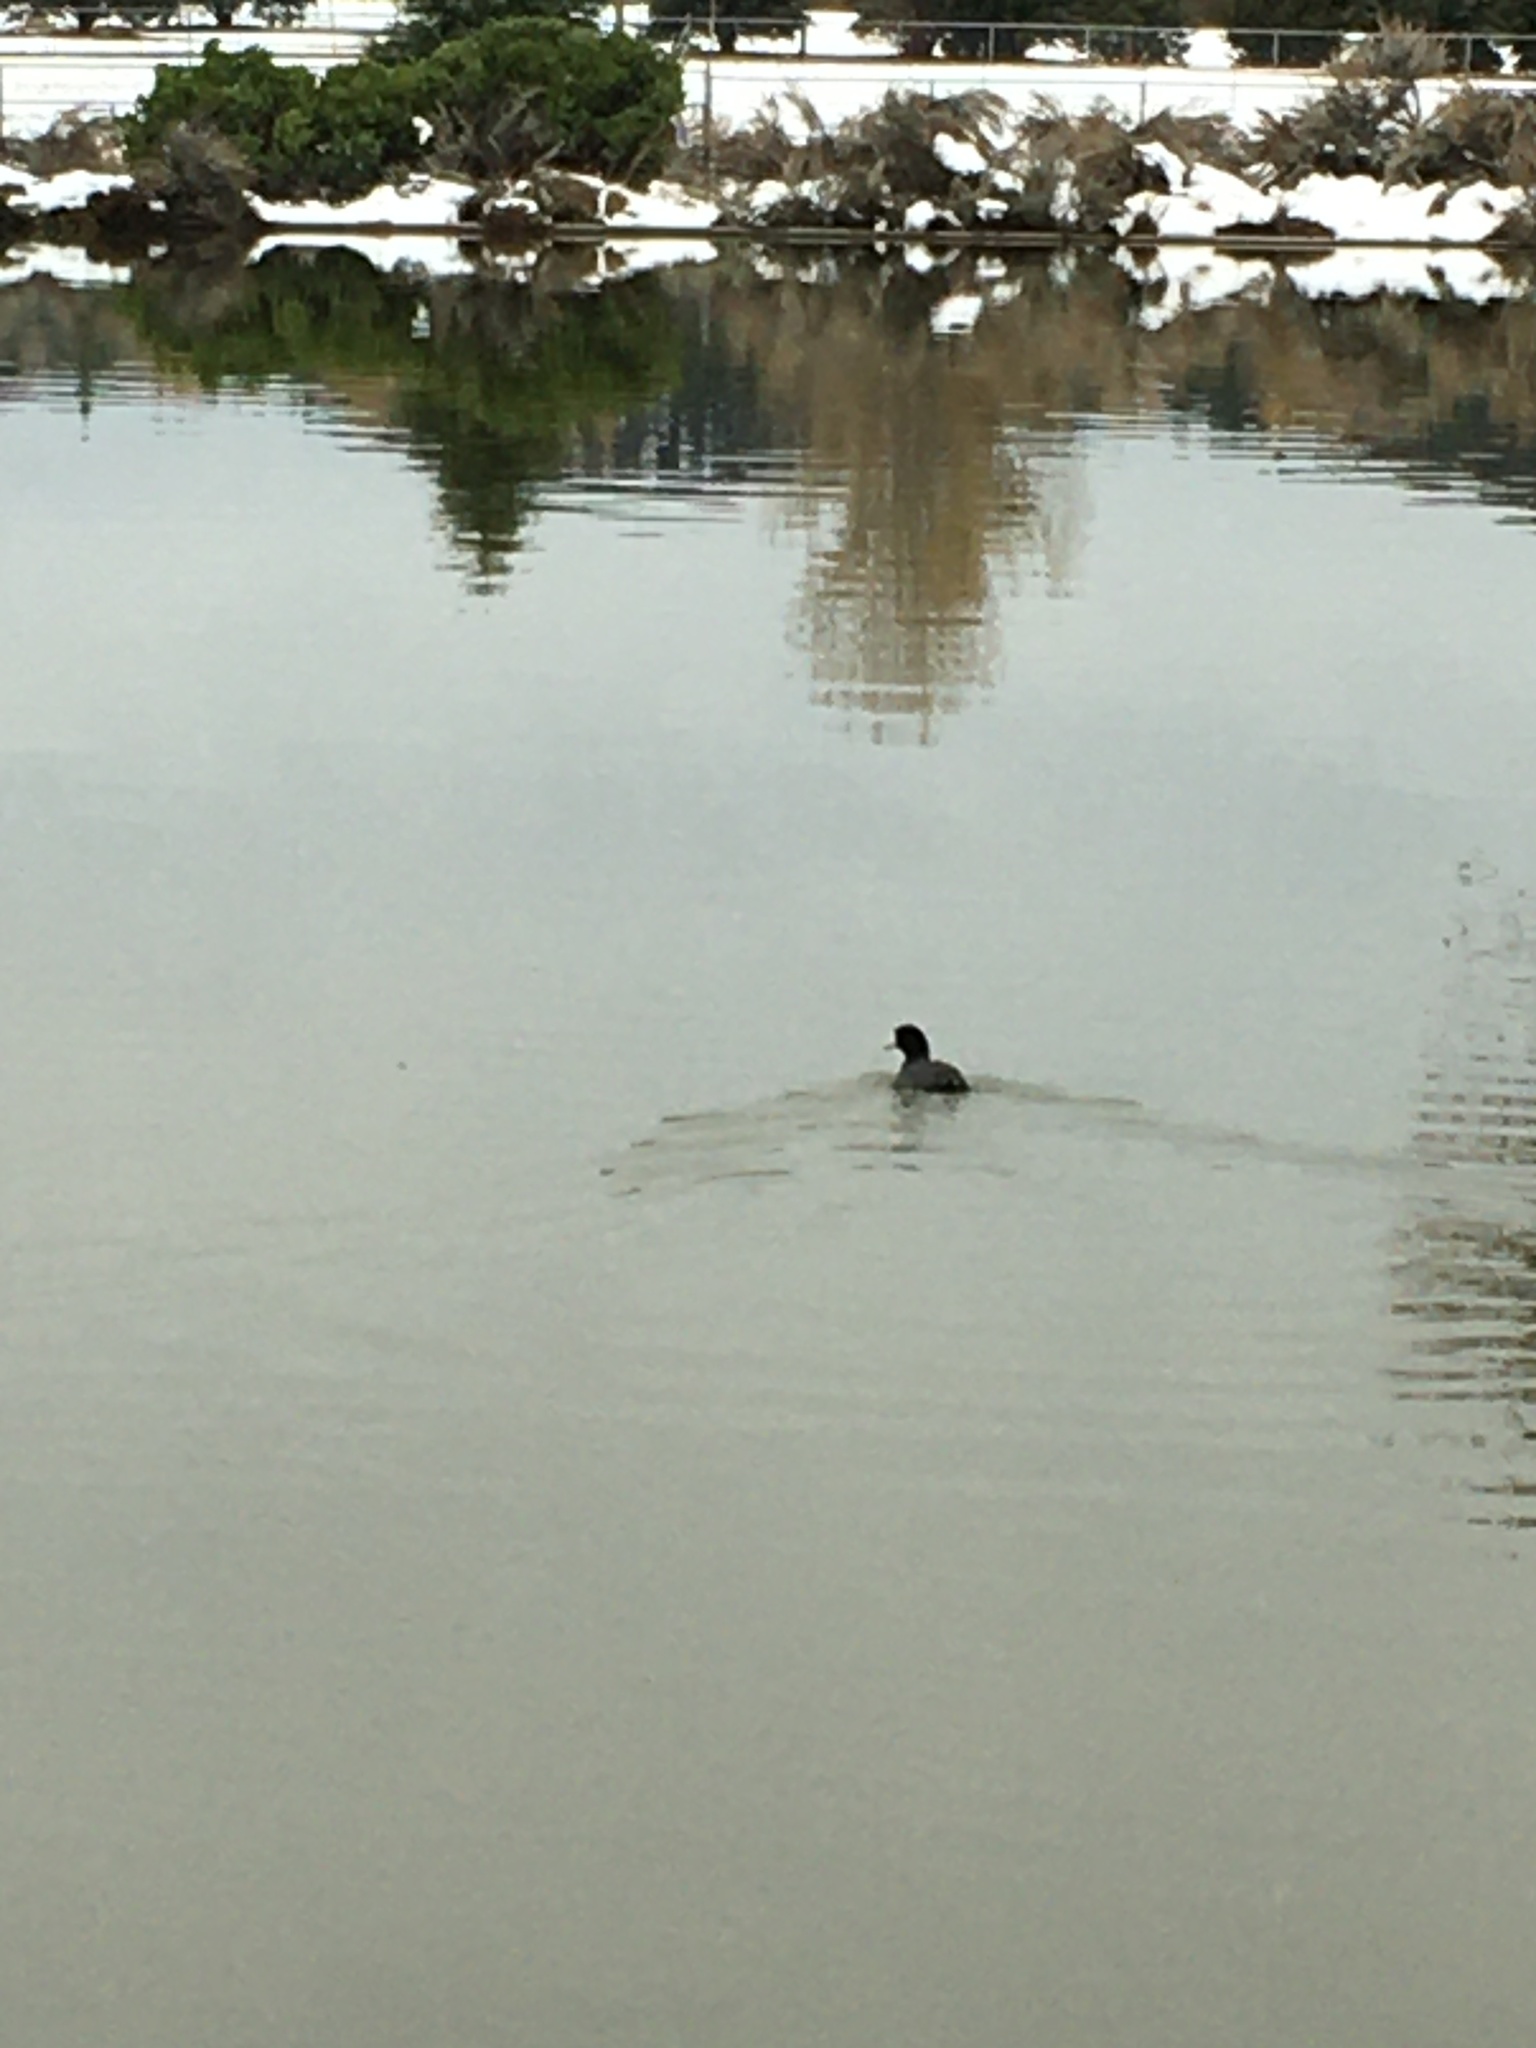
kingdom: Animalia
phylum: Chordata
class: Aves
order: Gruiformes
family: Rallidae
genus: Fulica
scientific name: Fulica americana
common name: American coot
